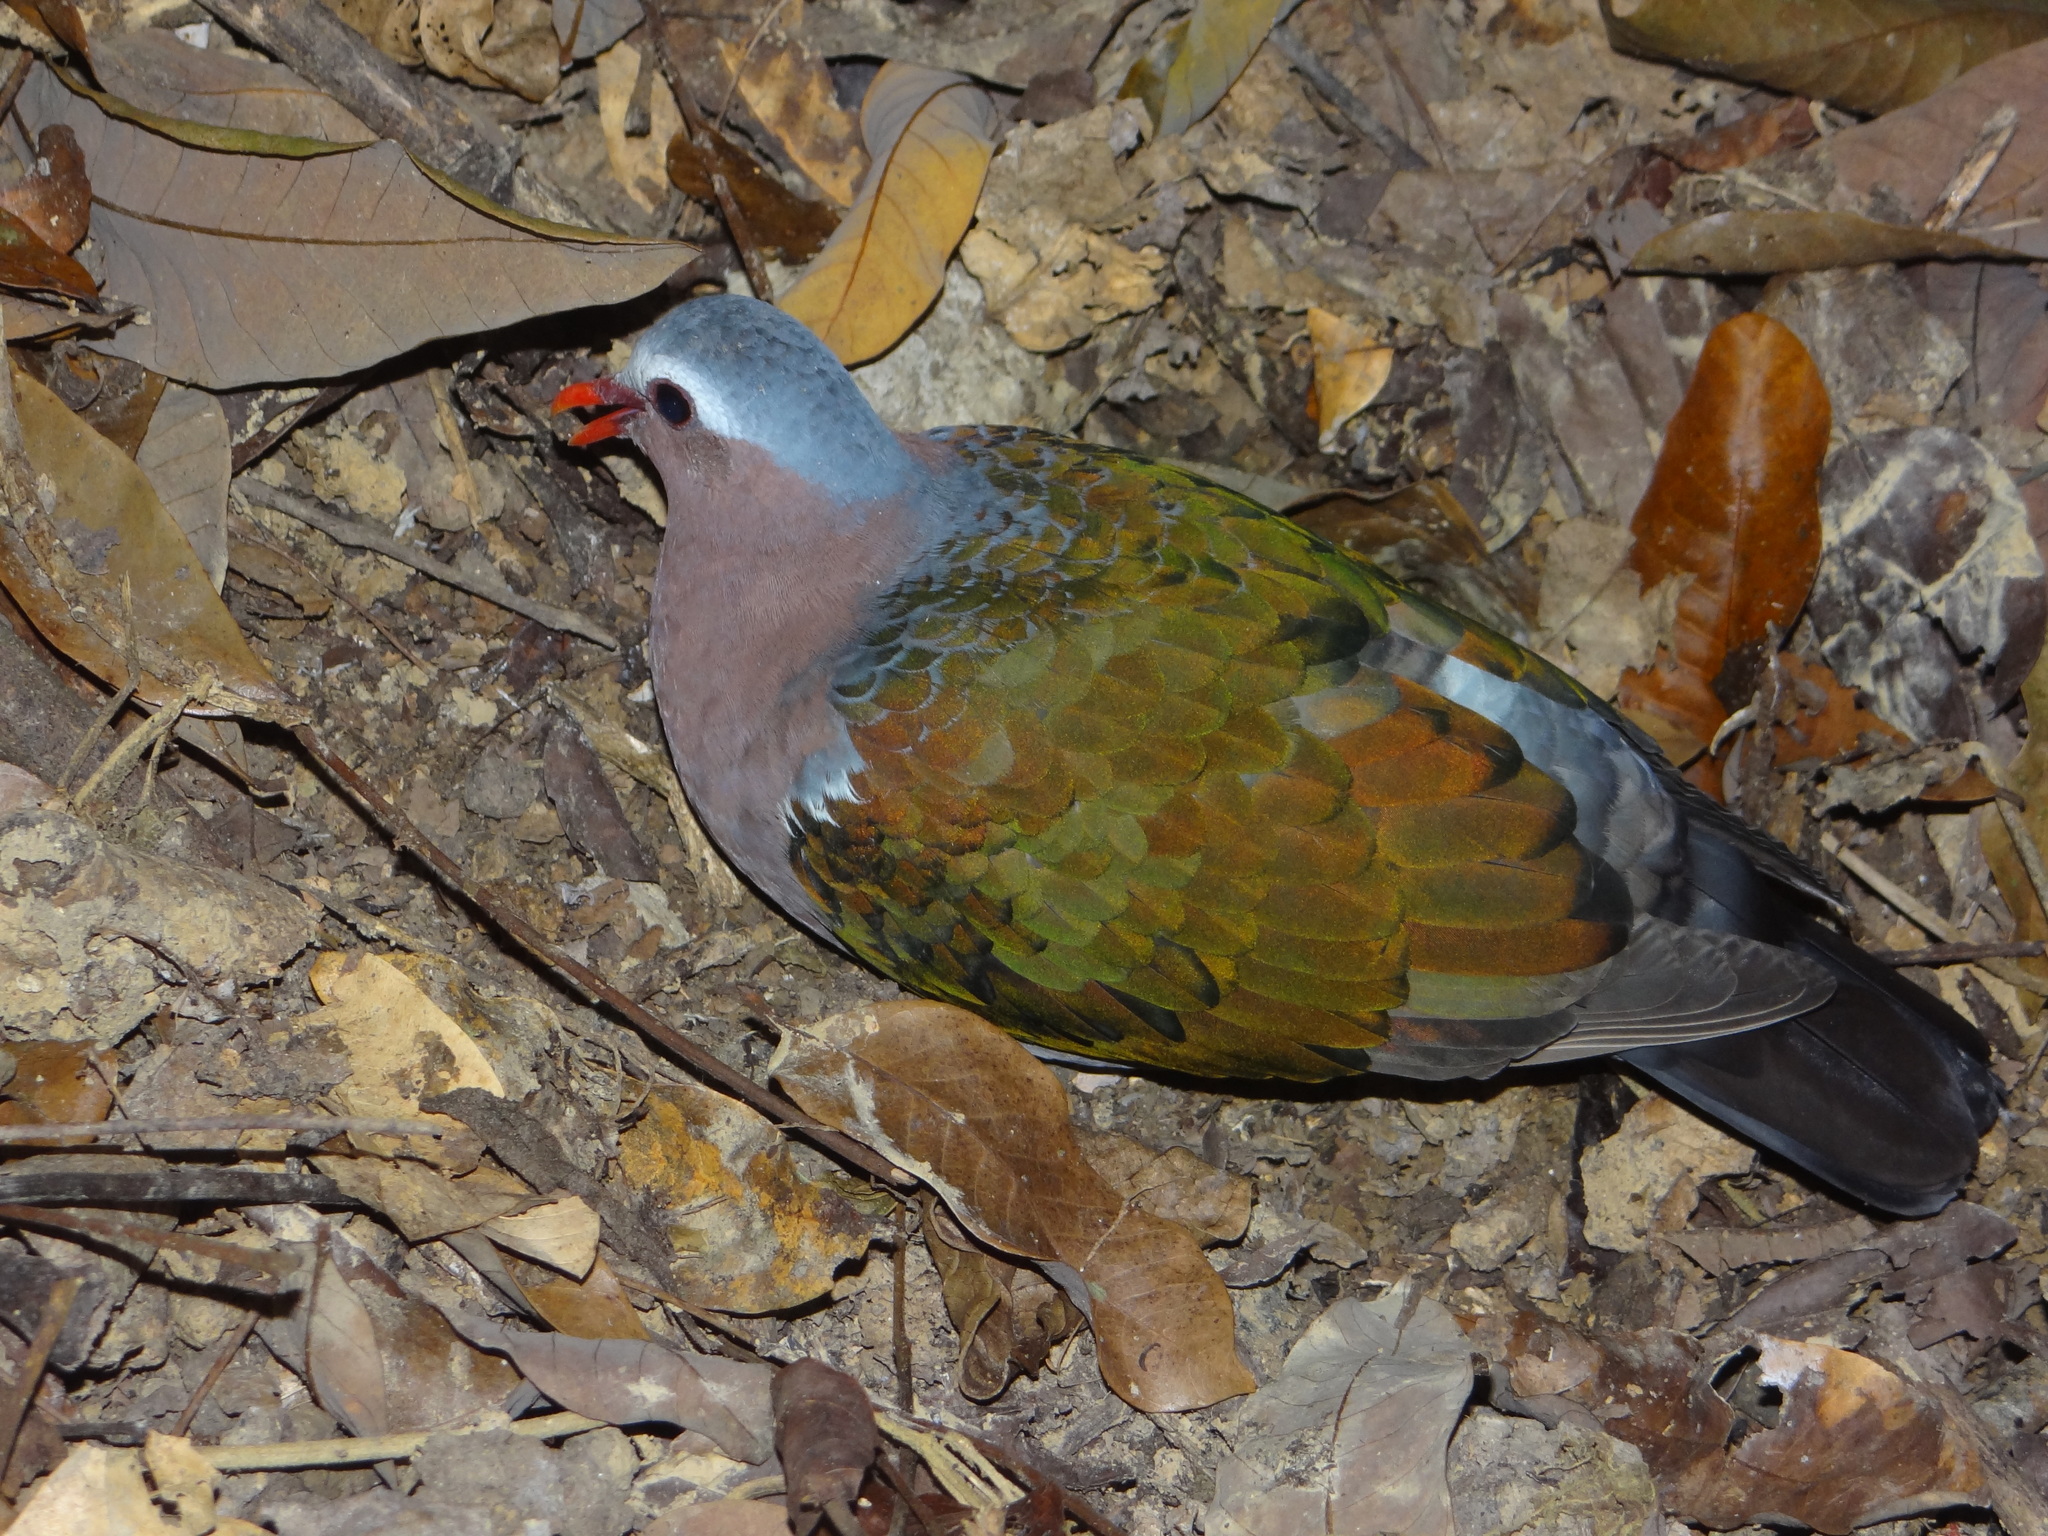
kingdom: Animalia
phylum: Chordata
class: Aves
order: Columbiformes
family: Columbidae
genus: Chalcophaps
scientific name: Chalcophaps indica
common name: Common emerald dove
